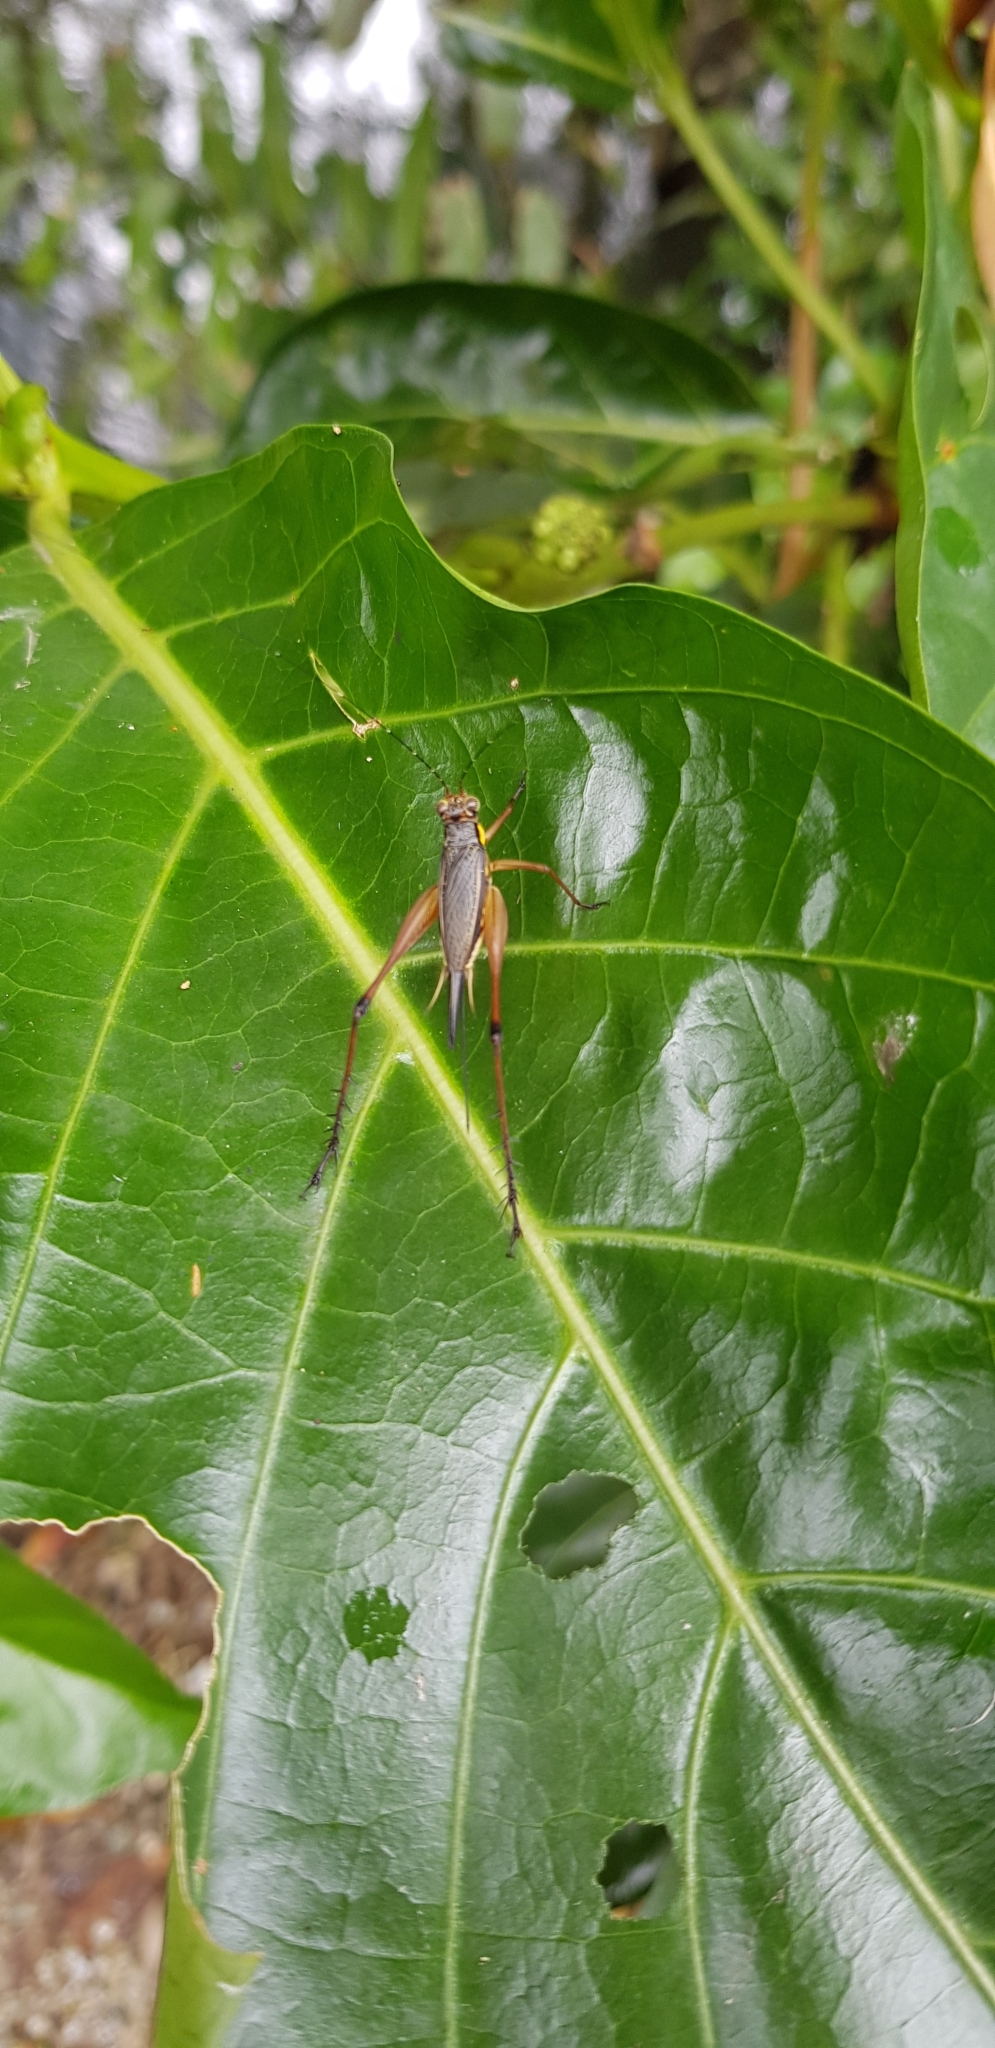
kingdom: Animalia
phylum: Arthropoda
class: Insecta
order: Orthoptera
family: Gryllidae
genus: Nisitrus
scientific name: Nisitrus malaya
